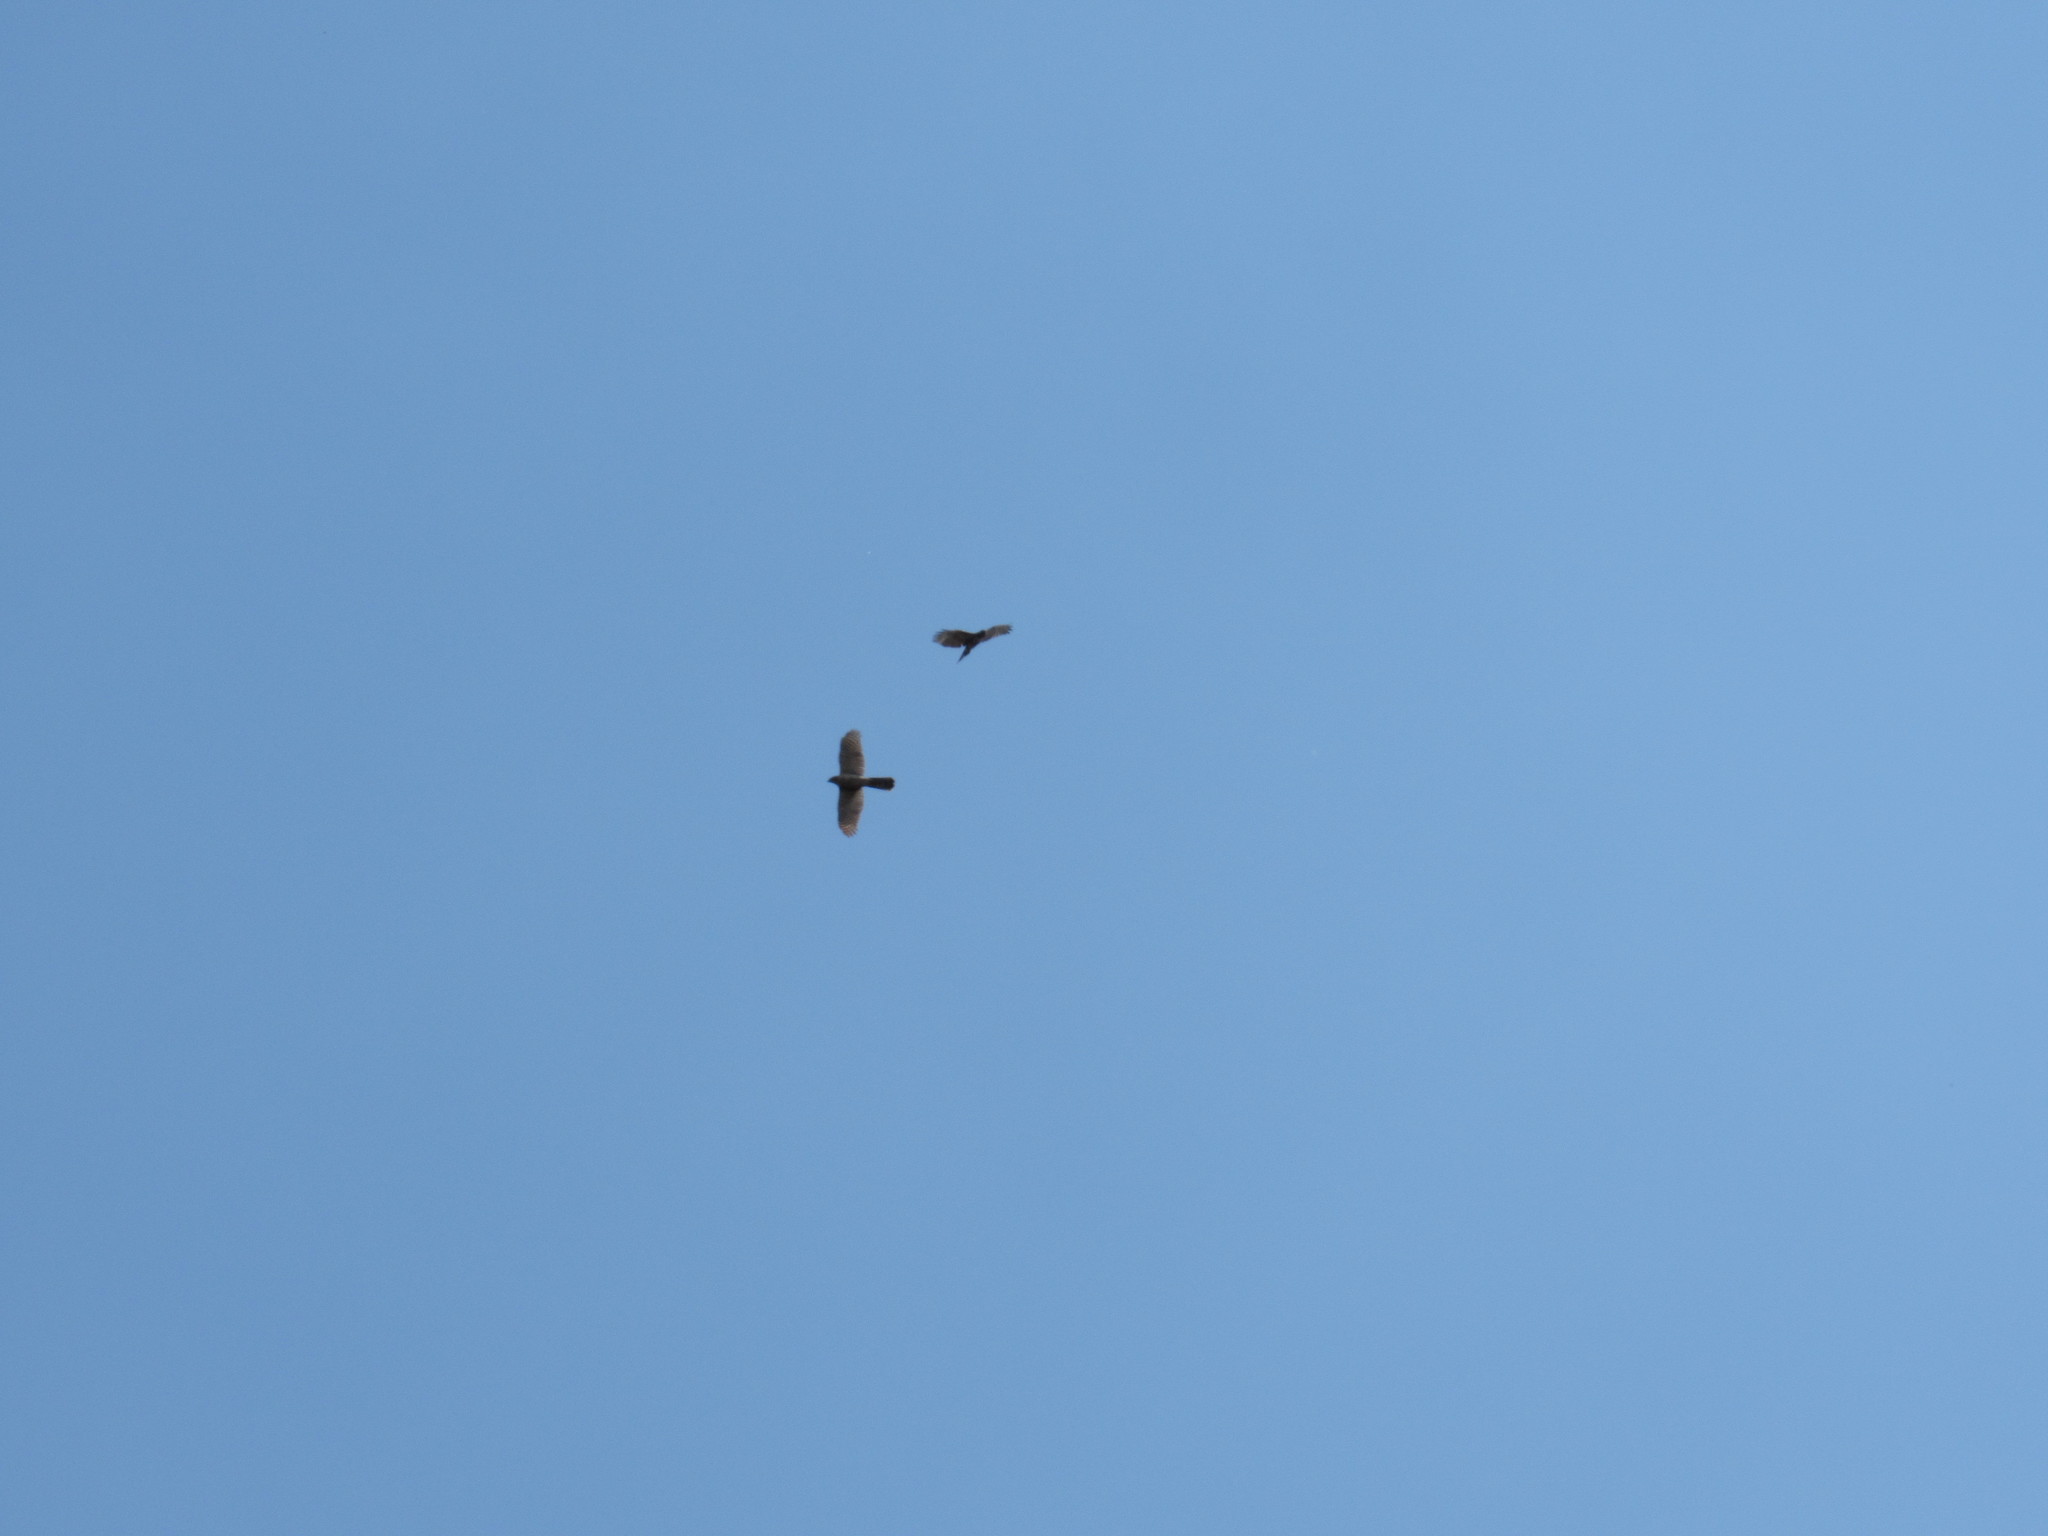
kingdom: Animalia
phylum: Chordata
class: Aves
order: Accipitriformes
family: Accipitridae
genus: Accipiter
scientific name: Accipiter cooperii
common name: Cooper's hawk
